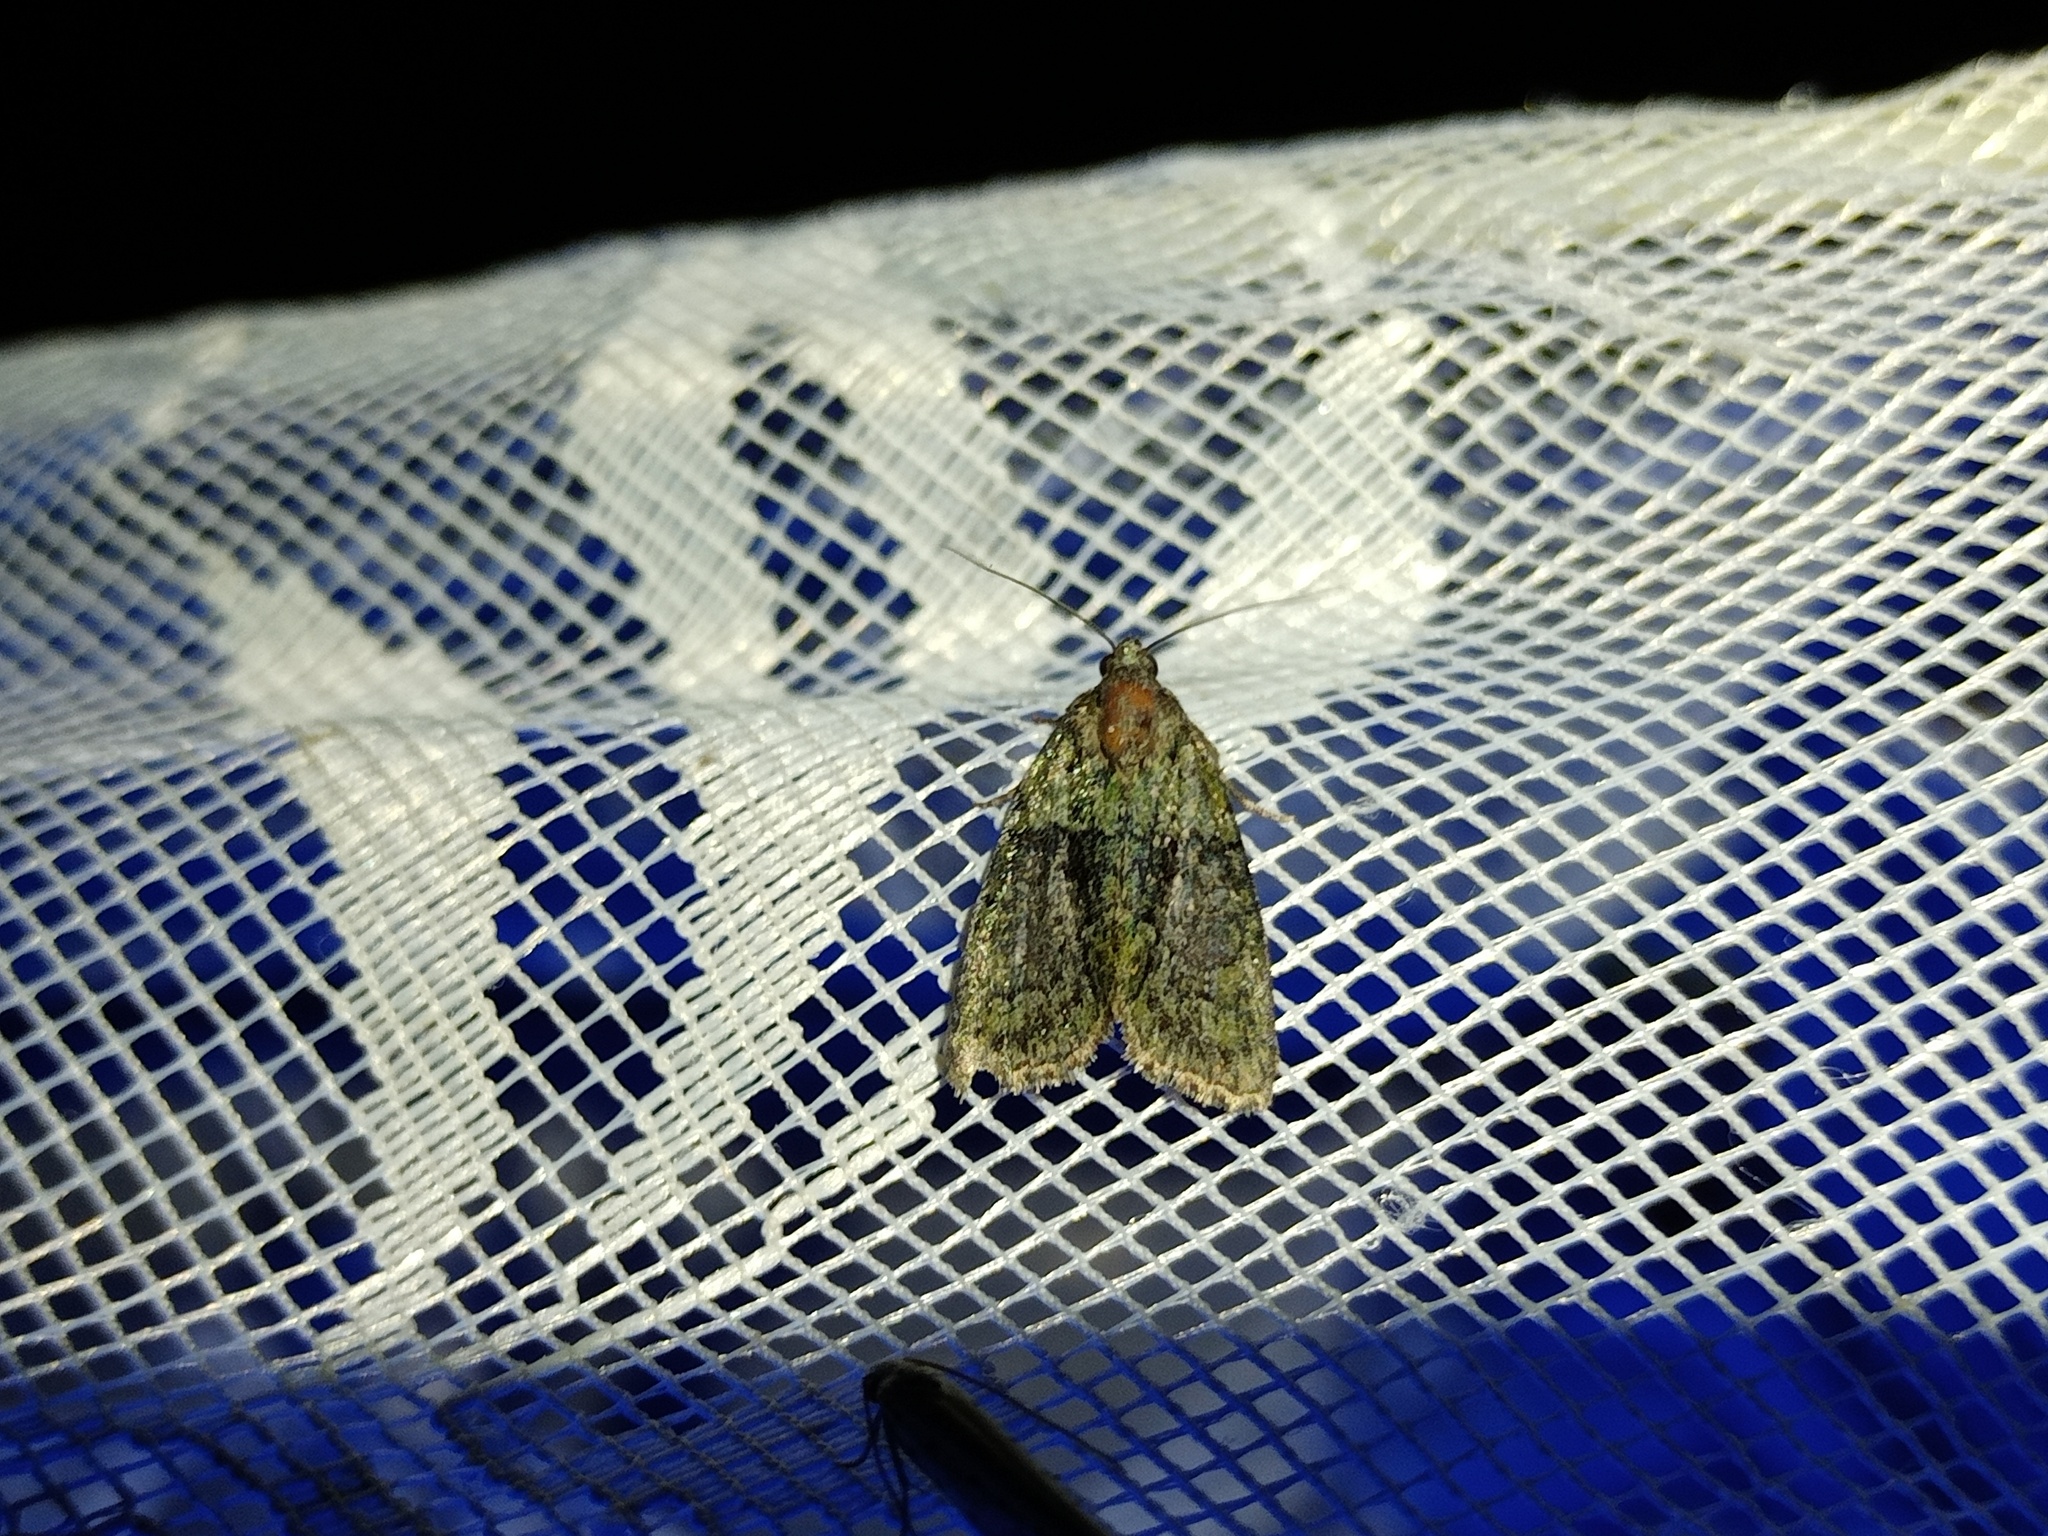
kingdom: Animalia
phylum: Arthropoda
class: Insecta
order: Lepidoptera
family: Noctuidae
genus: Cryphia
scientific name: Cryphia algae
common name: Tree-lichen beauty
